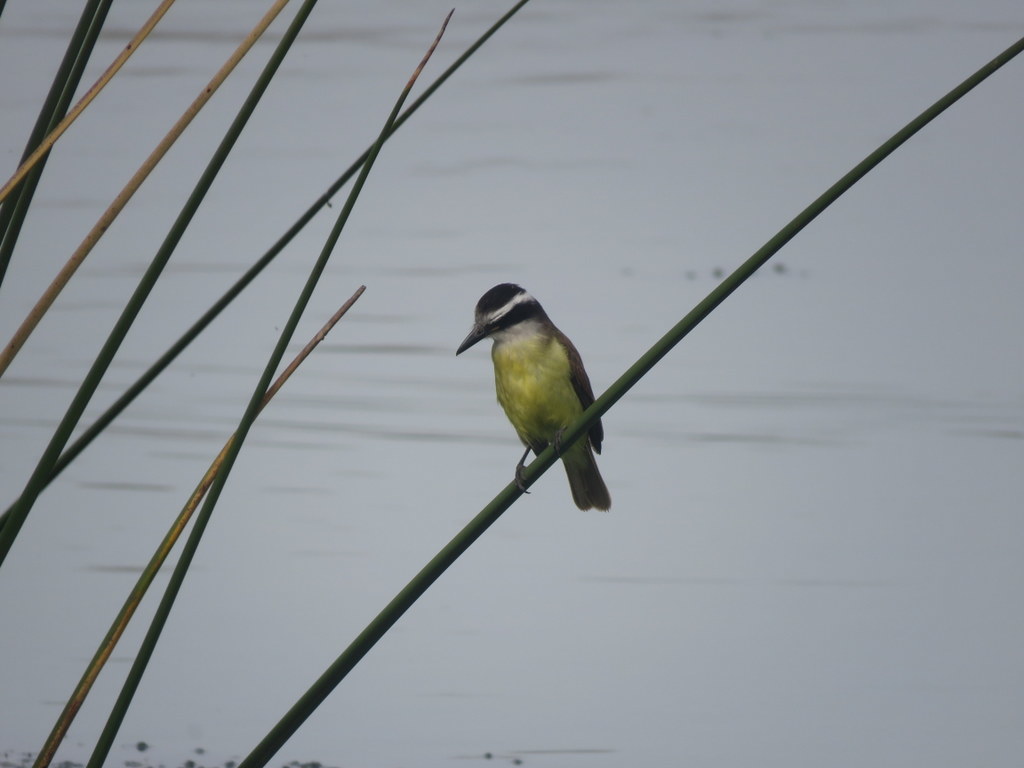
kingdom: Animalia
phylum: Chordata
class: Aves
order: Passeriformes
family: Tyrannidae
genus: Pitangus
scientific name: Pitangus sulphuratus
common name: Great kiskadee
